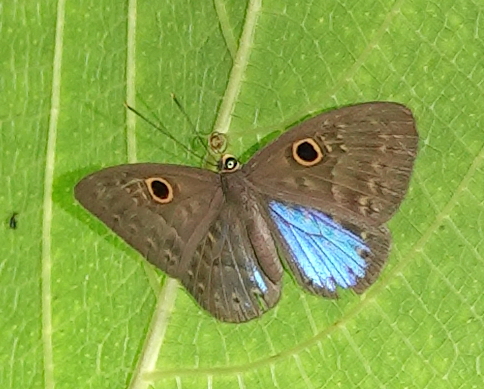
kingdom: Animalia
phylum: Cnidaria
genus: Eurybia
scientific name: Eurybia lycisca
